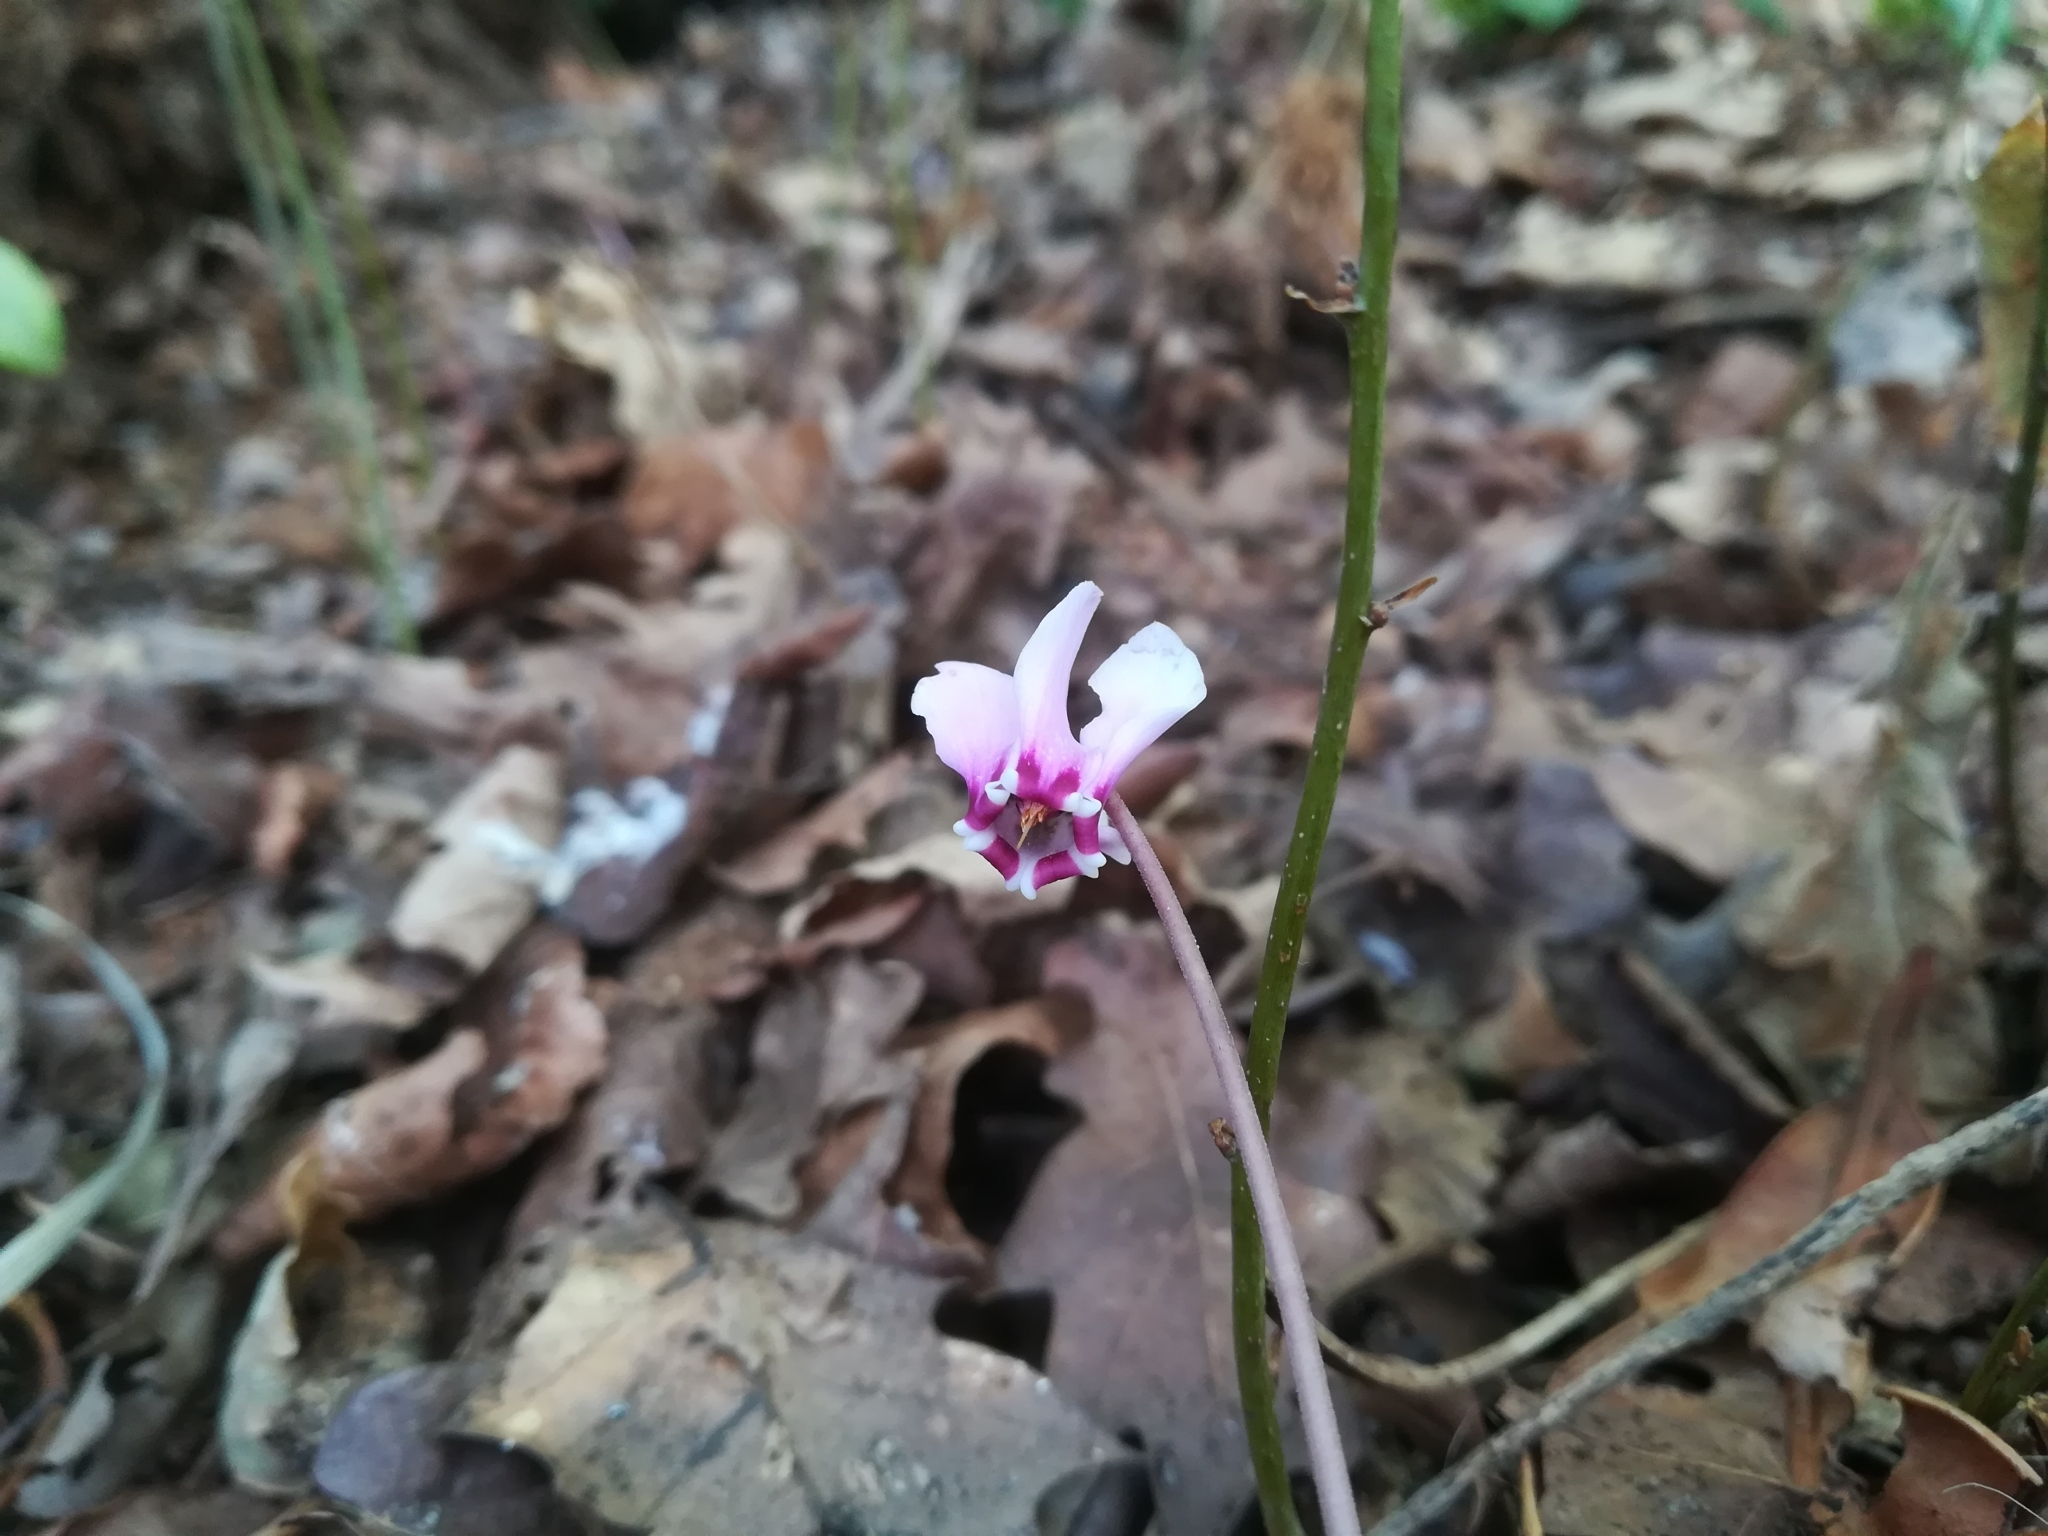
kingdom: Plantae
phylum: Tracheophyta
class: Magnoliopsida
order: Ericales
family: Primulaceae
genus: Cyclamen
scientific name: Cyclamen hederifolium
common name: Sowbread
